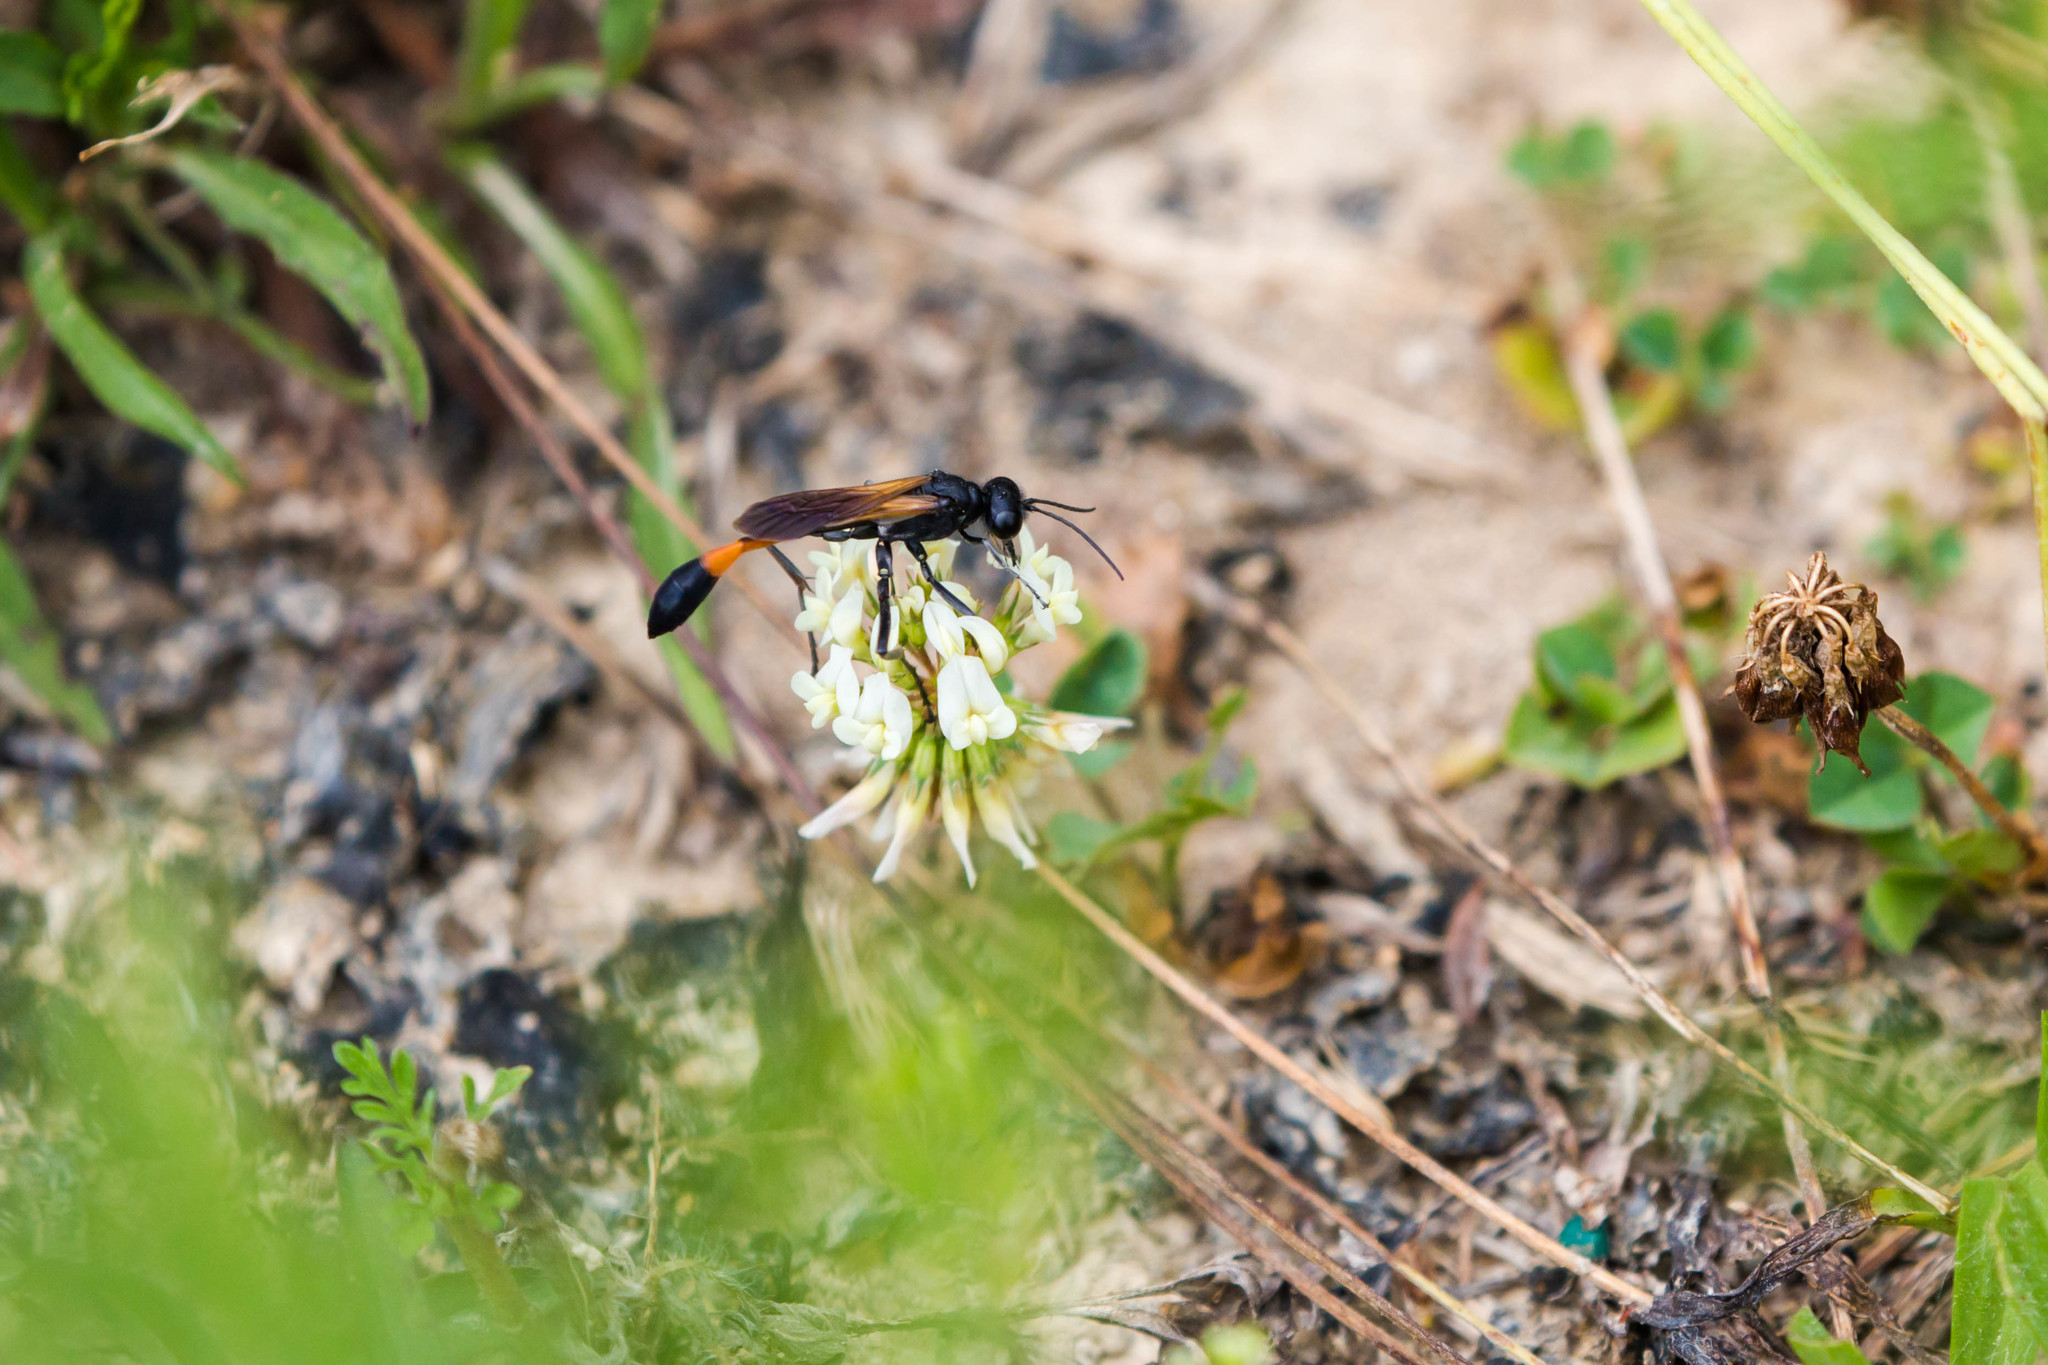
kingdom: Animalia
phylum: Arthropoda
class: Insecta
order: Hymenoptera
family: Sphecidae
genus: Ammophila
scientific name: Ammophila pictipennis
